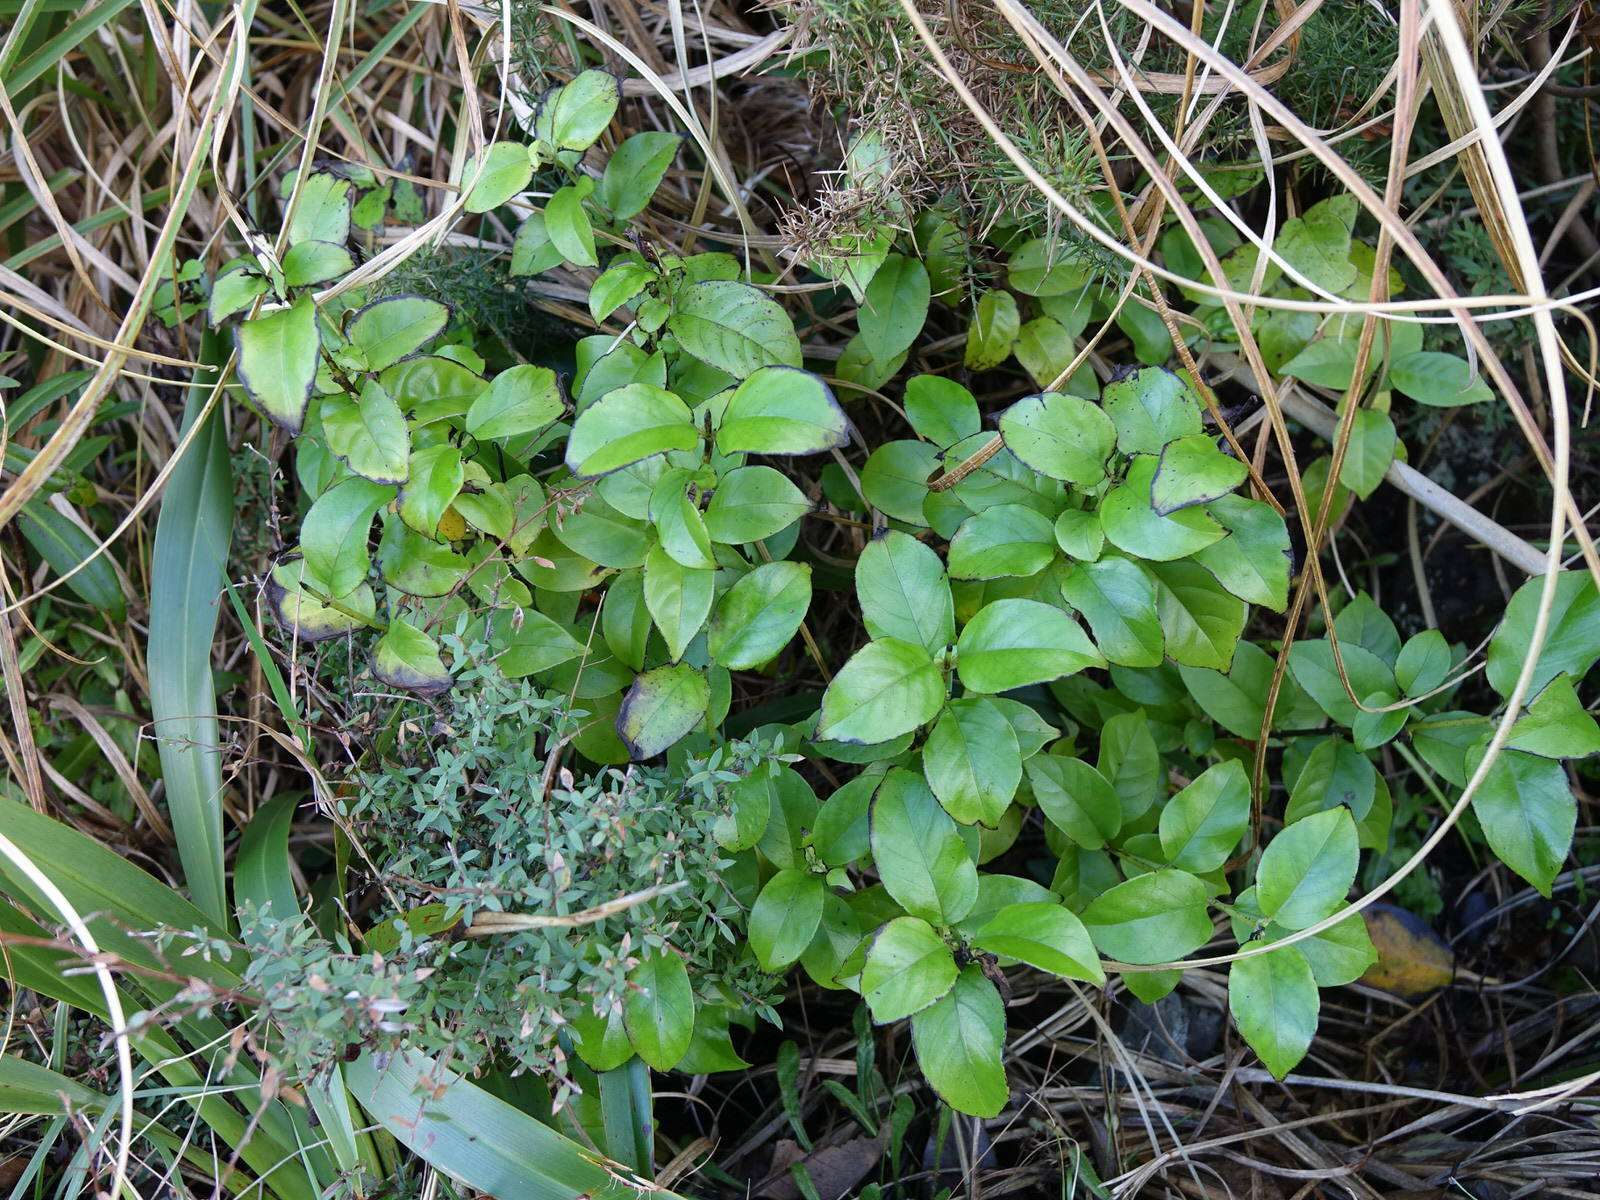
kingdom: Plantae
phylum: Tracheophyta
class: Magnoliopsida
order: Gentianales
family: Loganiaceae
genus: Geniostoma
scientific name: Geniostoma ligustrifolium
